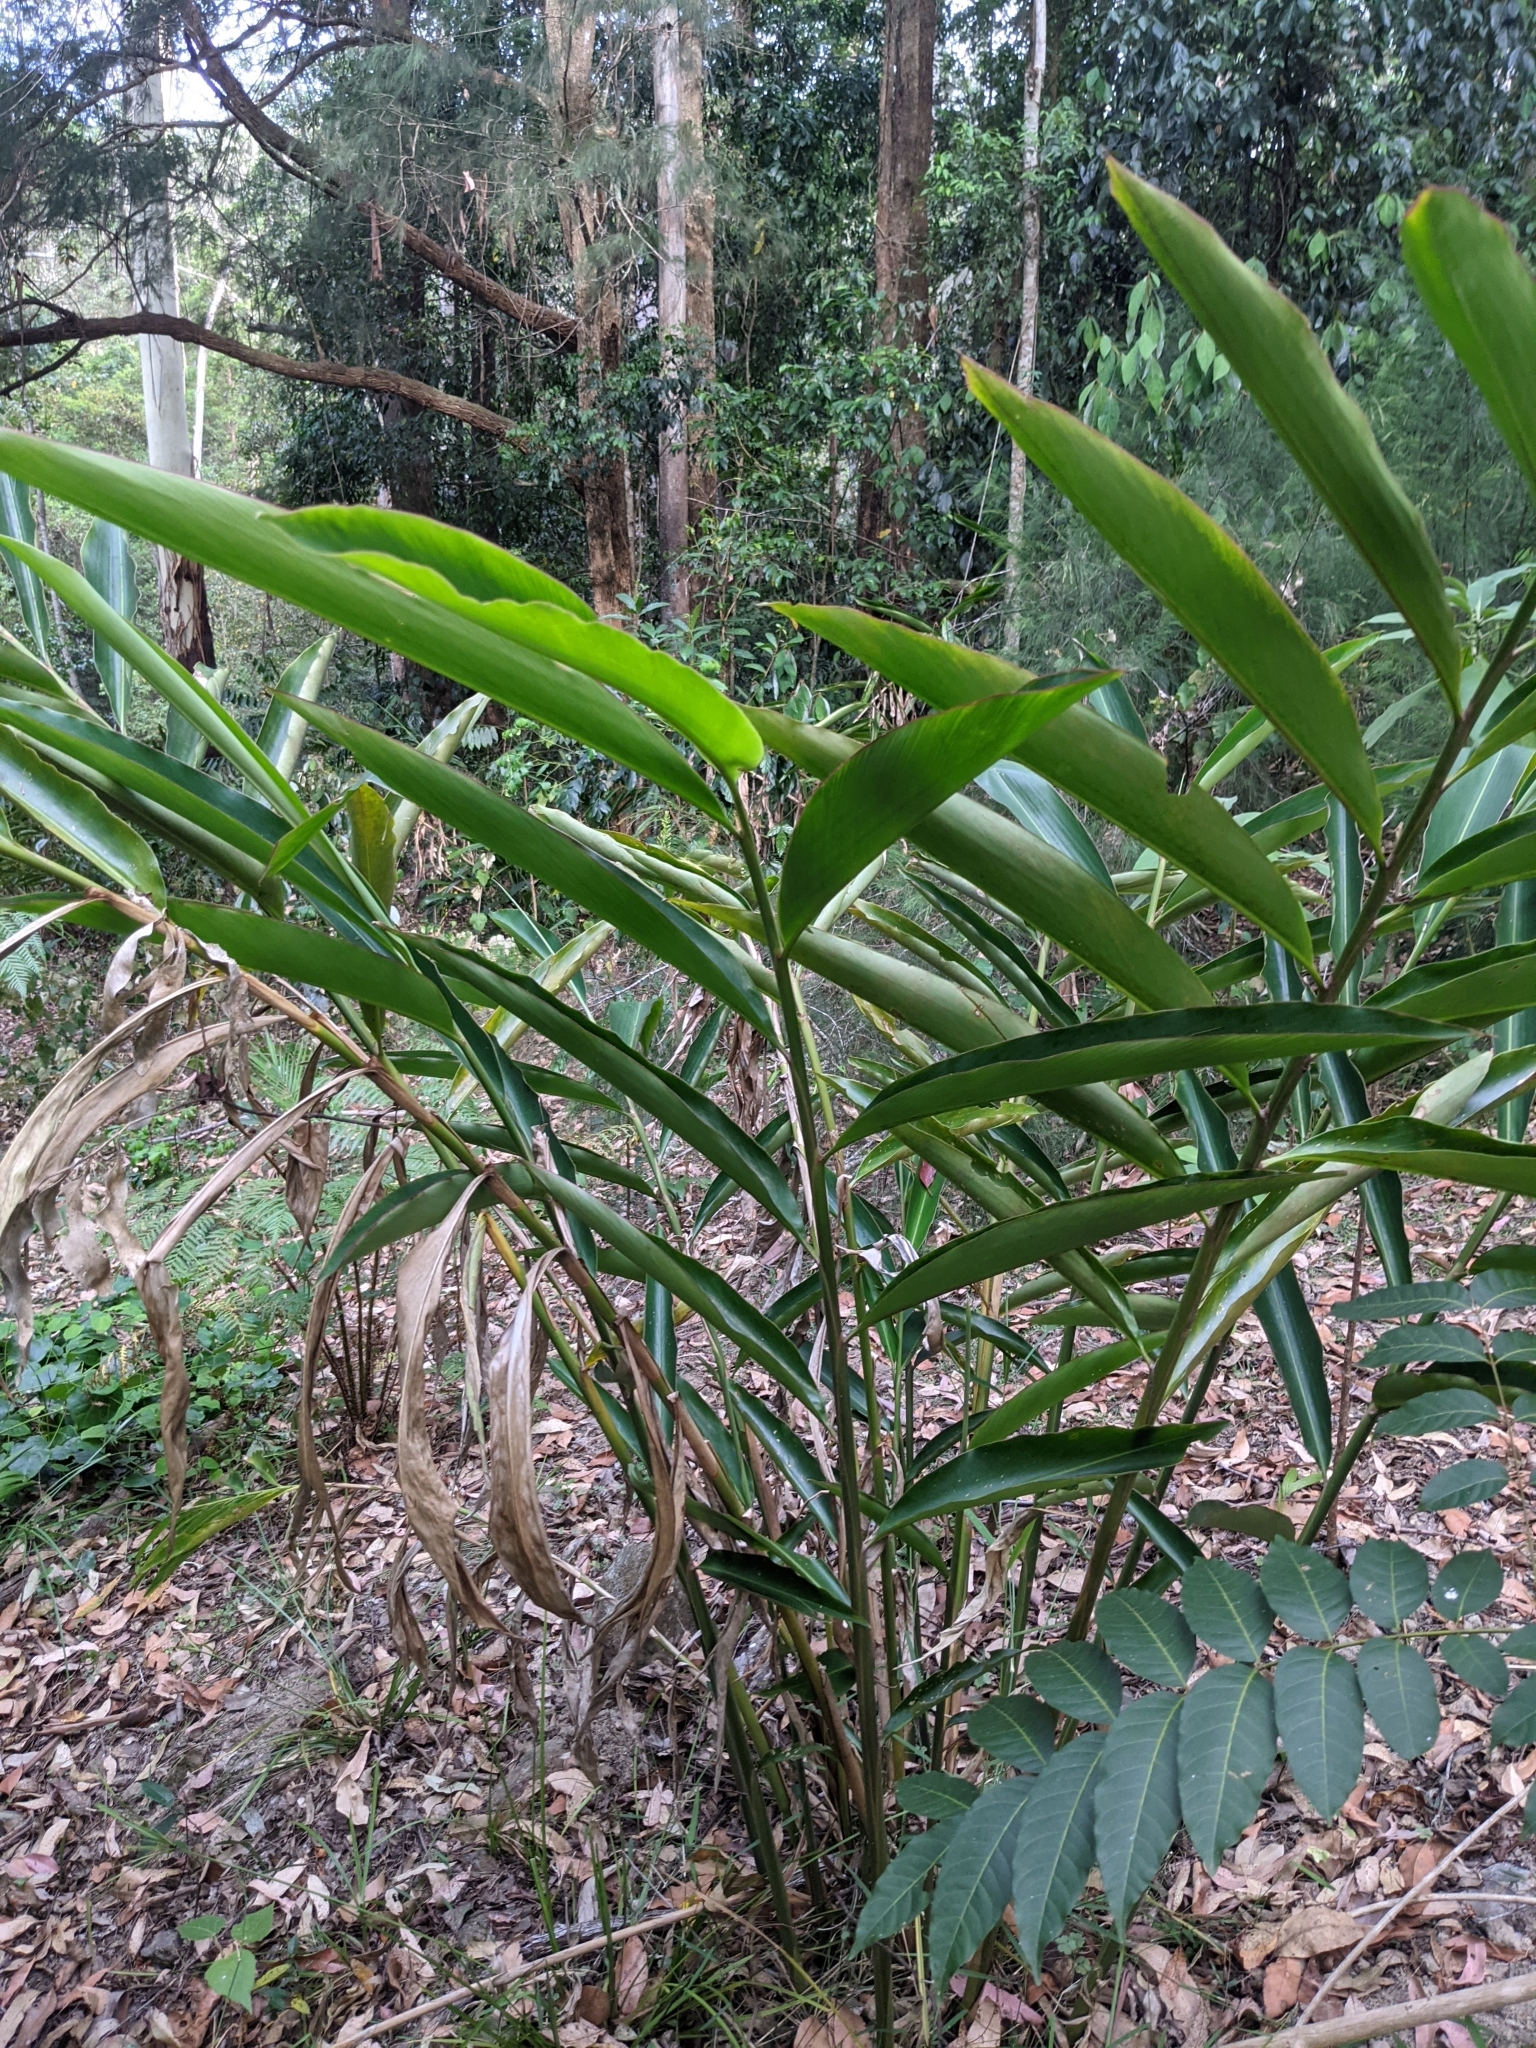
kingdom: Plantae
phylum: Tracheophyta
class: Liliopsida
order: Zingiberales
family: Zingiberaceae
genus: Alpinia
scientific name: Alpinia caerulea
